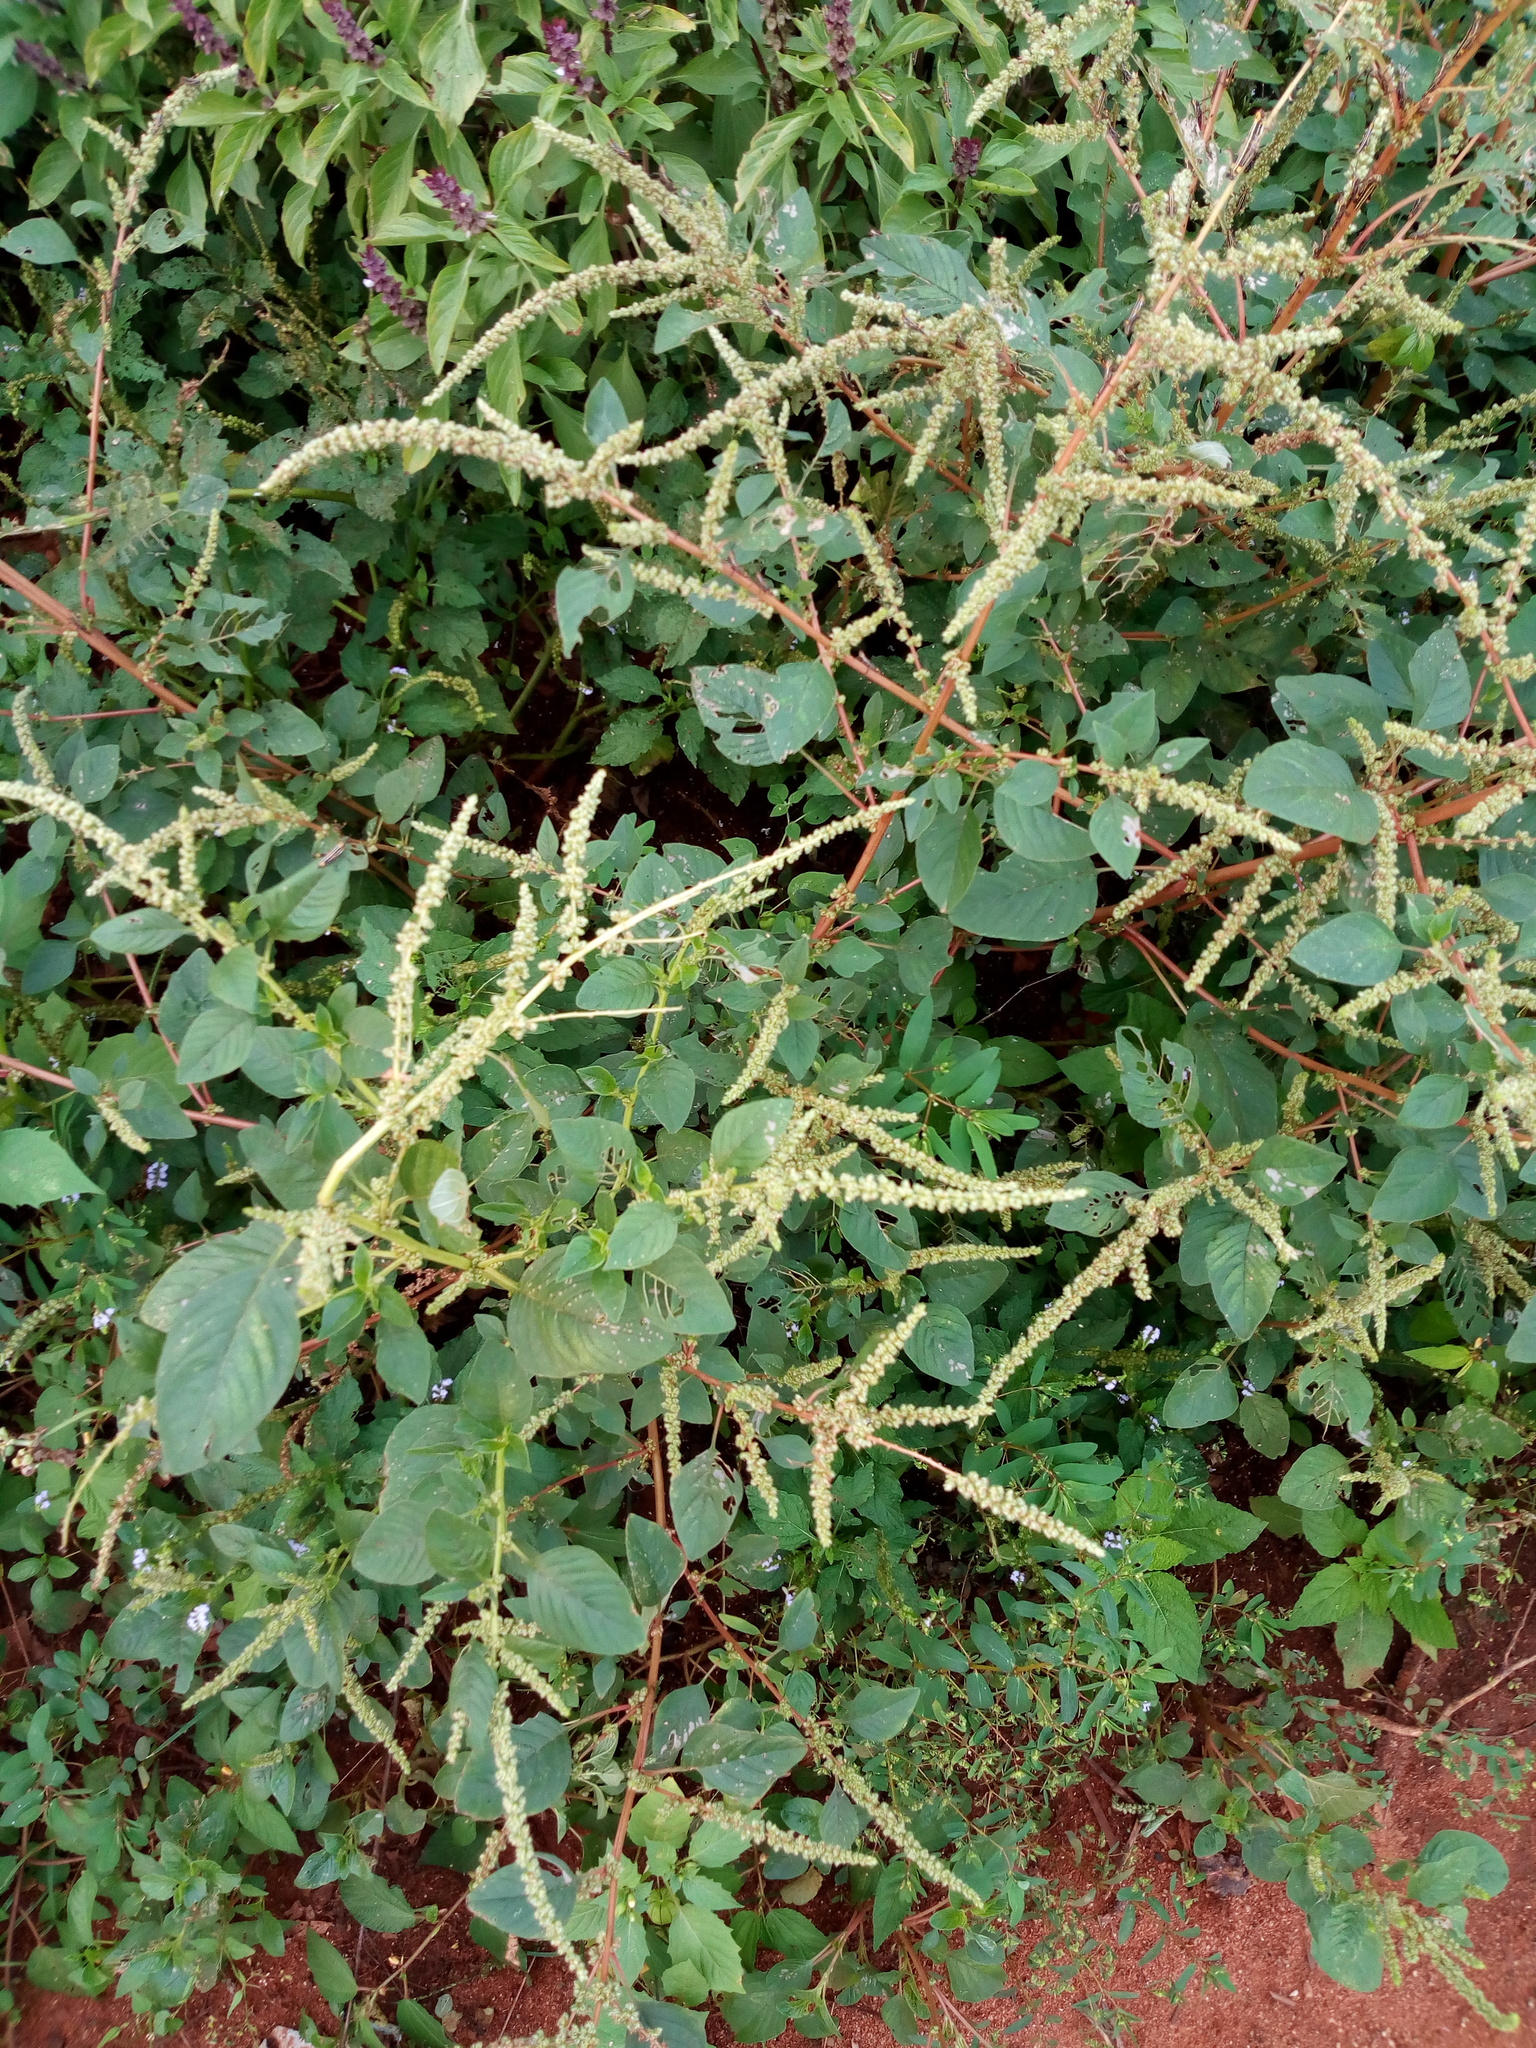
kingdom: Plantae
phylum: Tracheophyta
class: Magnoliopsida
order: Caryophyllales
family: Amaranthaceae
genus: Amaranthus
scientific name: Amaranthus retroflexus
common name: Redroot amaranth
